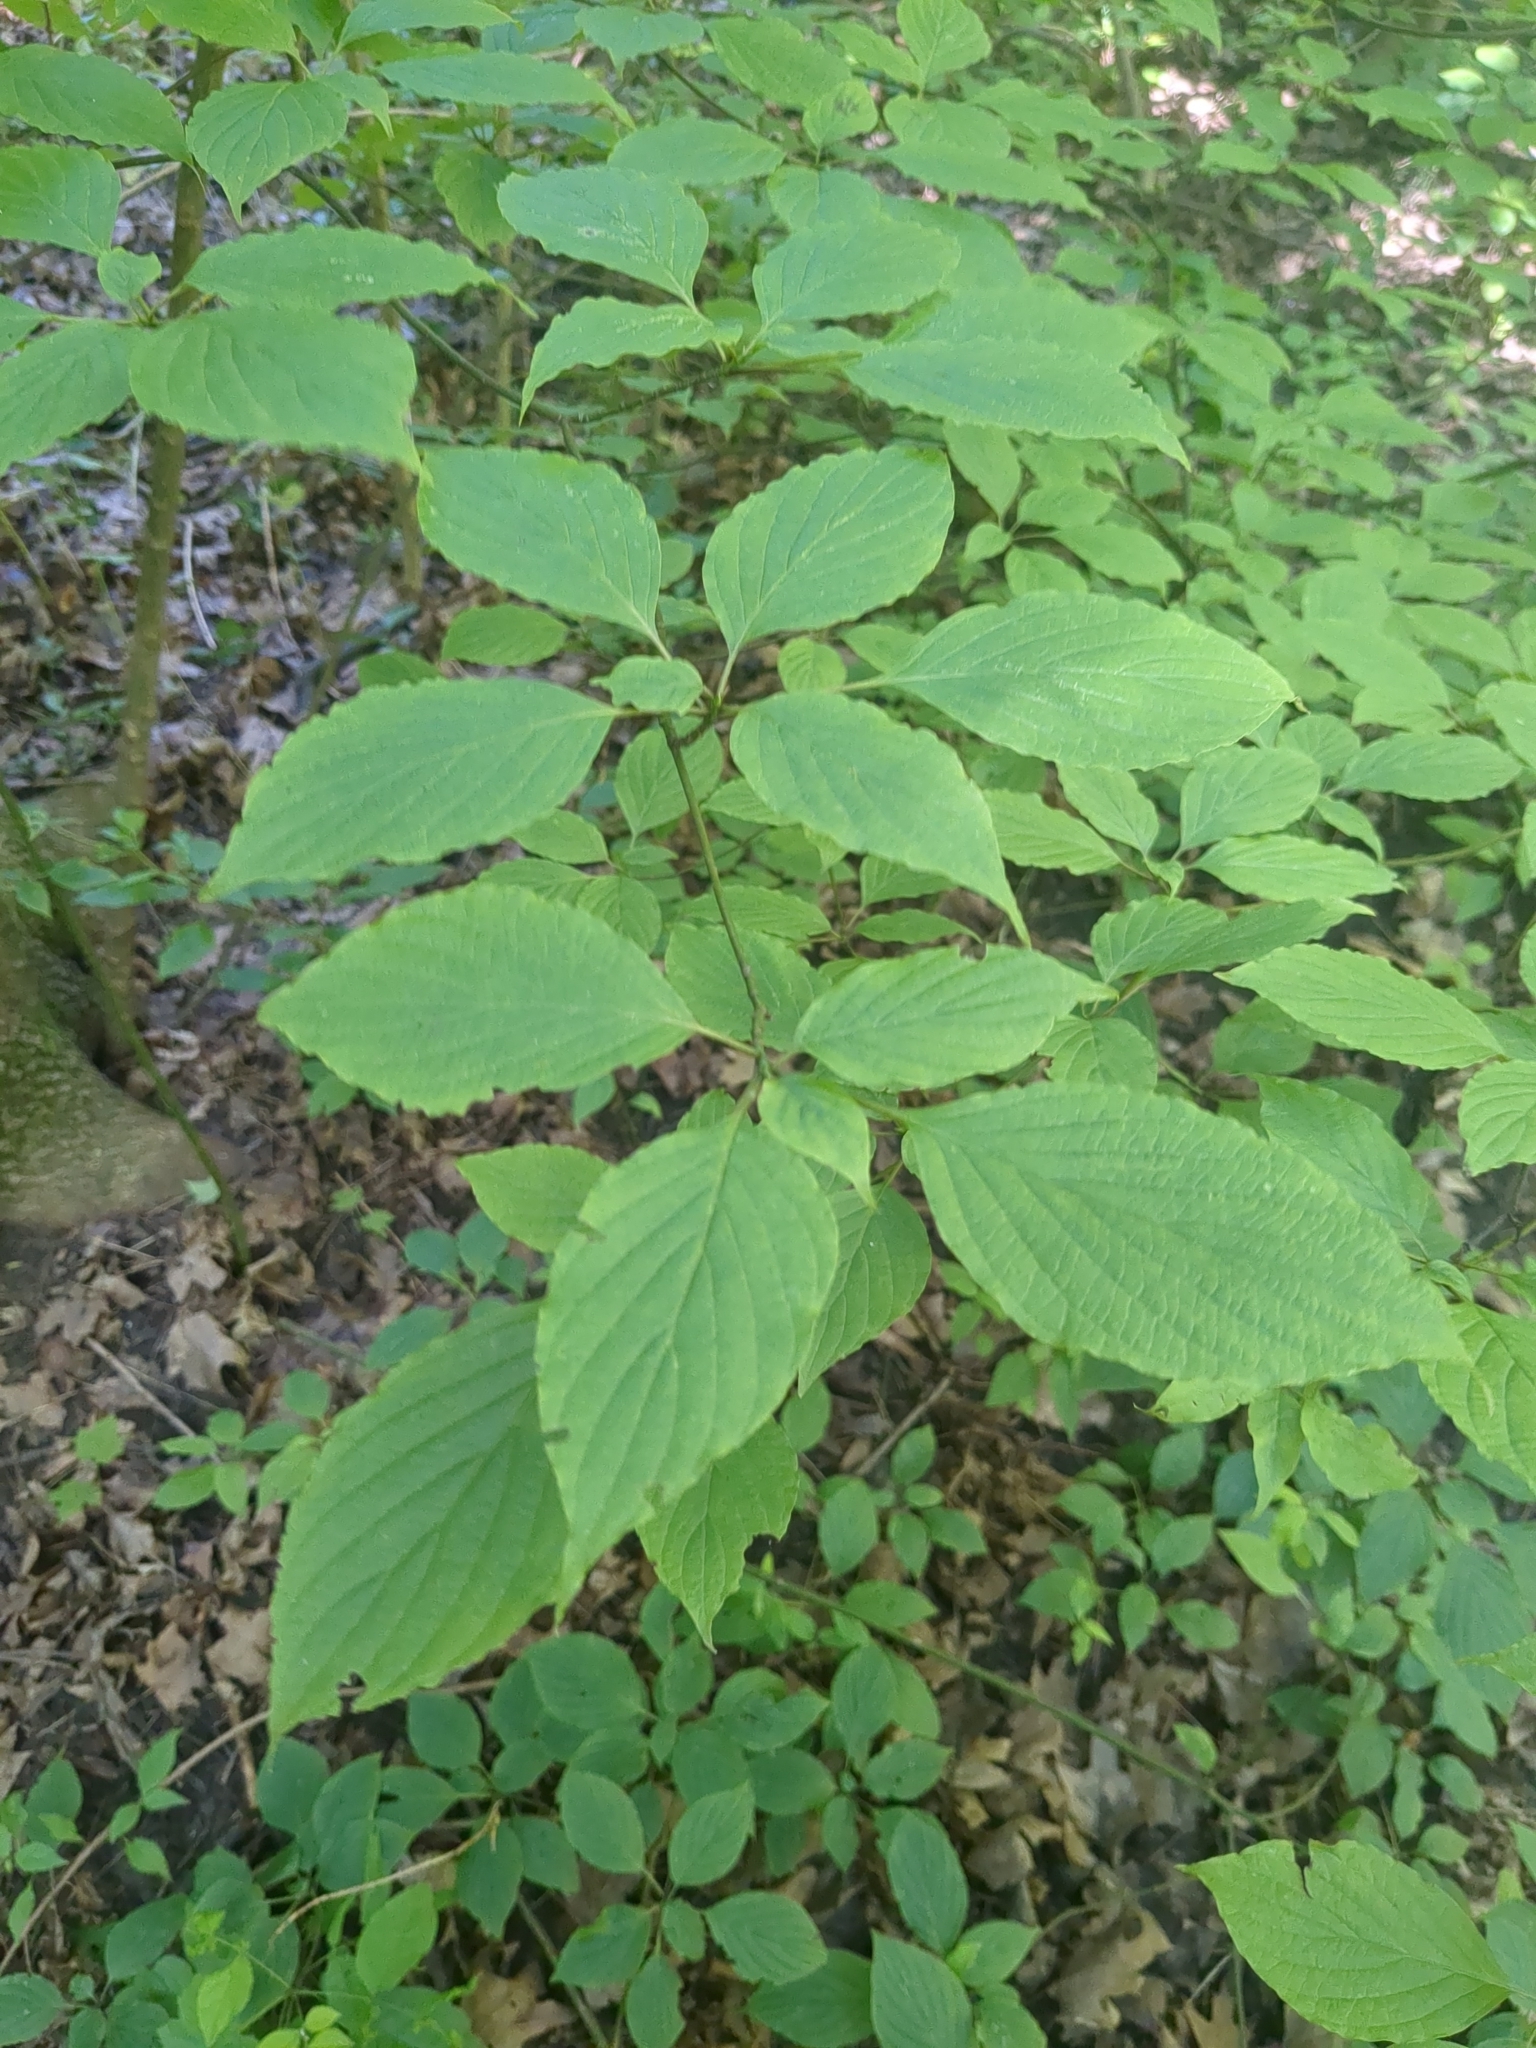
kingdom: Plantae
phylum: Tracheophyta
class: Magnoliopsida
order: Cornales
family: Cornaceae
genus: Cornus
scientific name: Cornus alternifolia
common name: Pagoda dogwood
